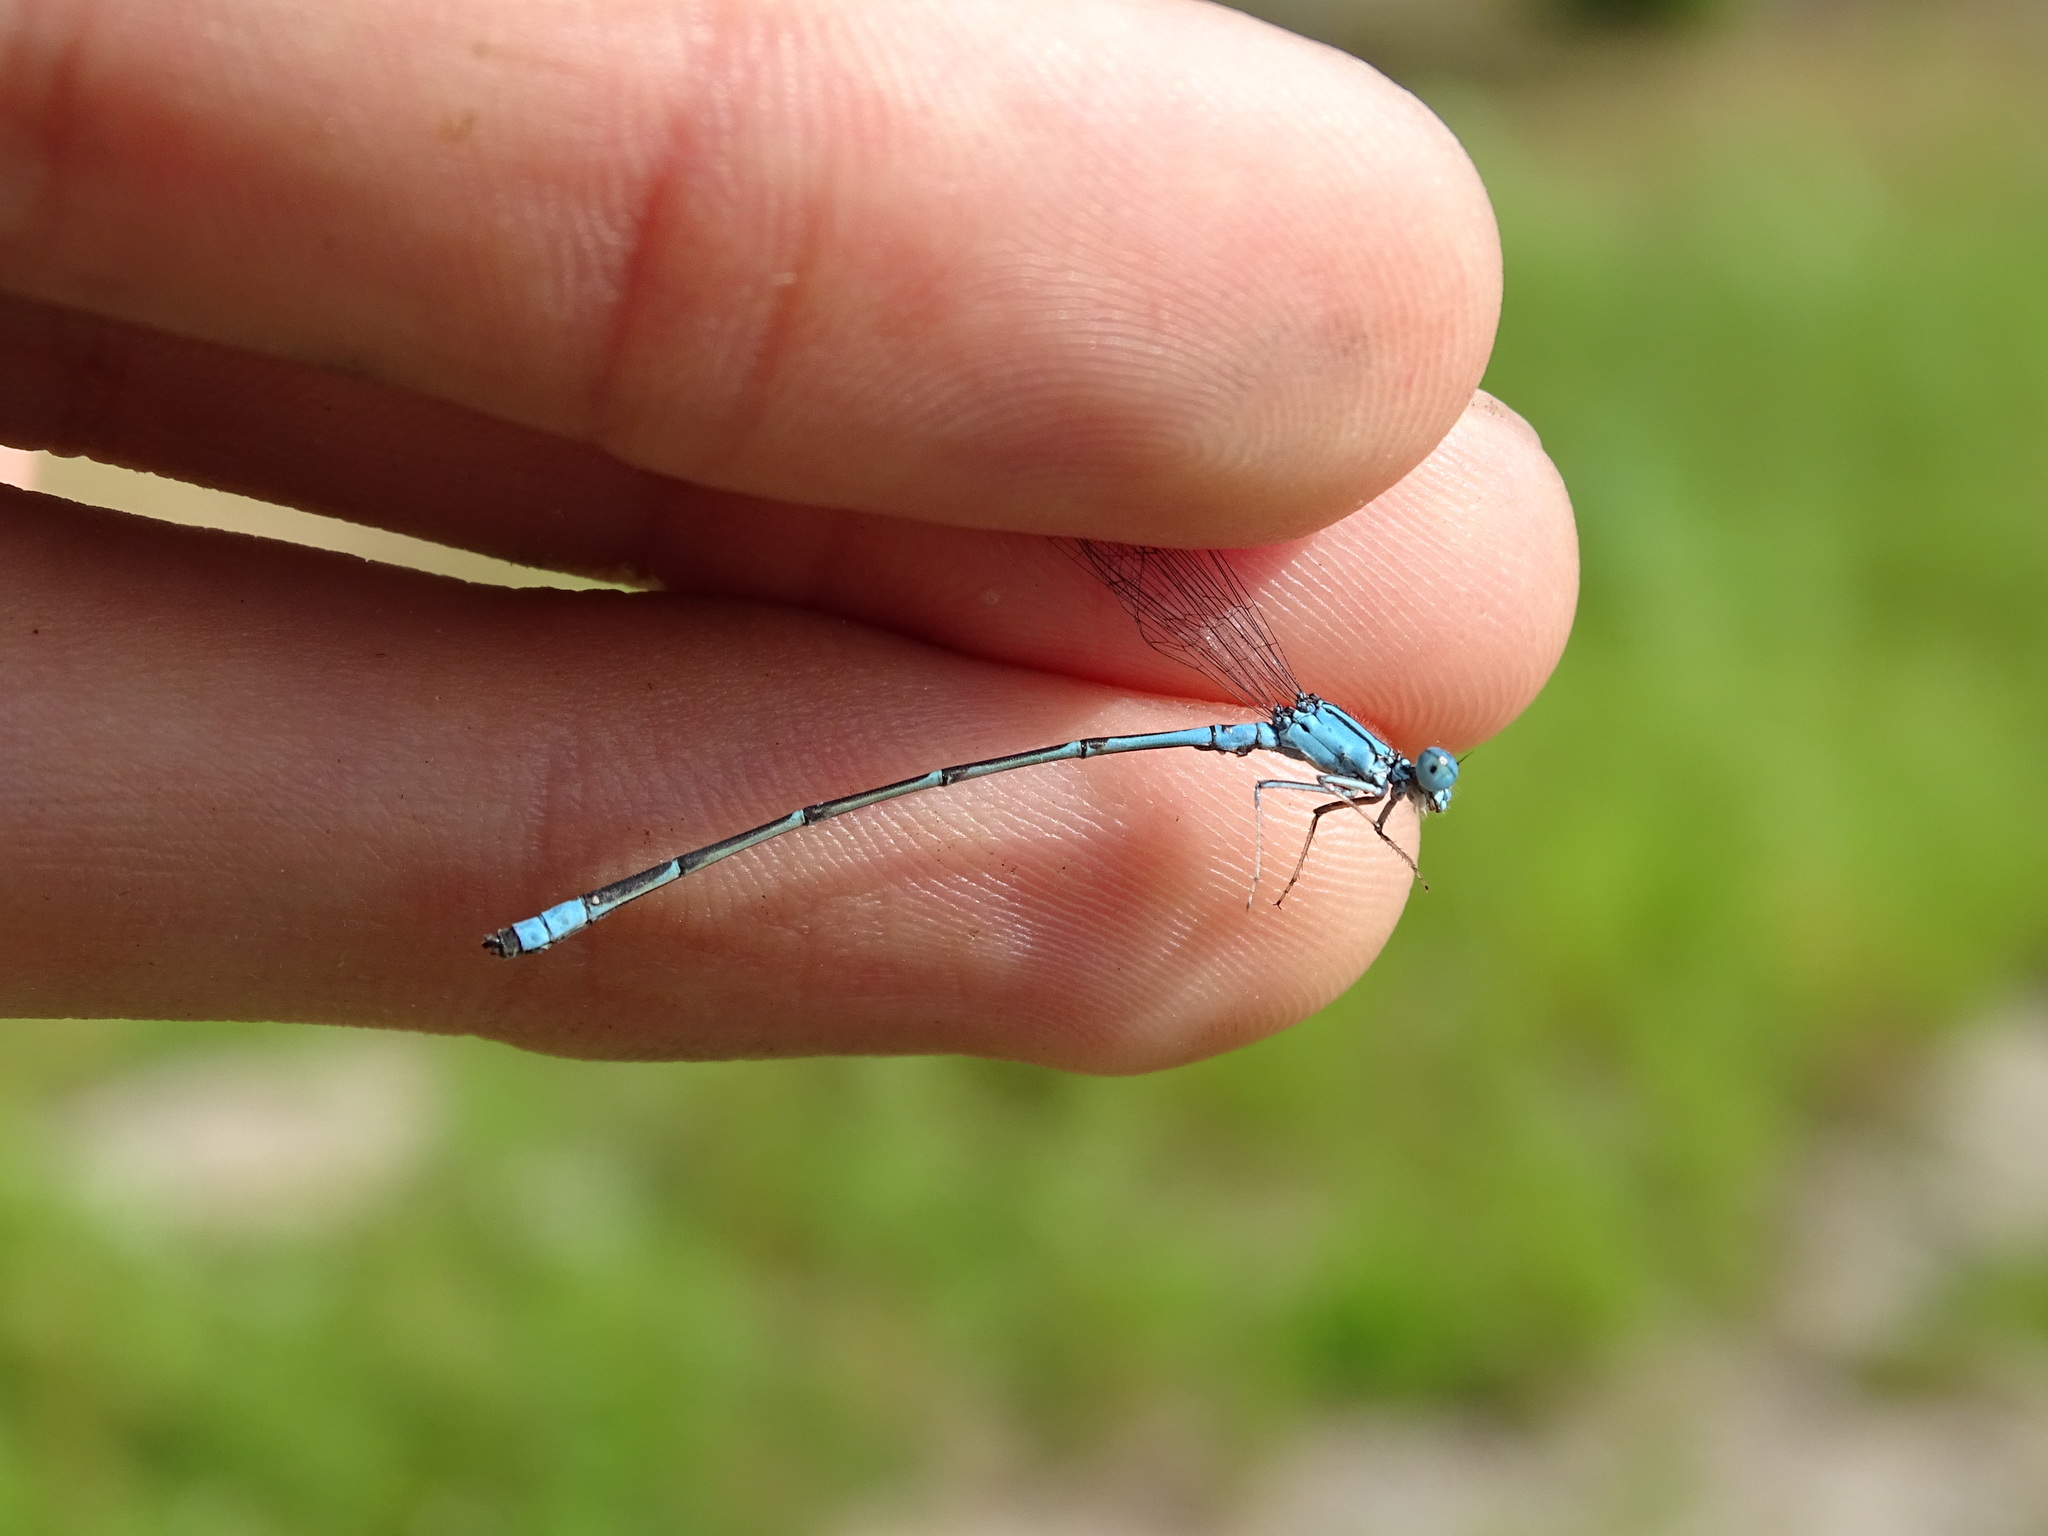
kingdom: Animalia
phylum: Arthropoda
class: Insecta
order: Odonata
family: Coenagrionidae
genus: Enallagma
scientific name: Enallagma traviatum
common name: Slender bluet
